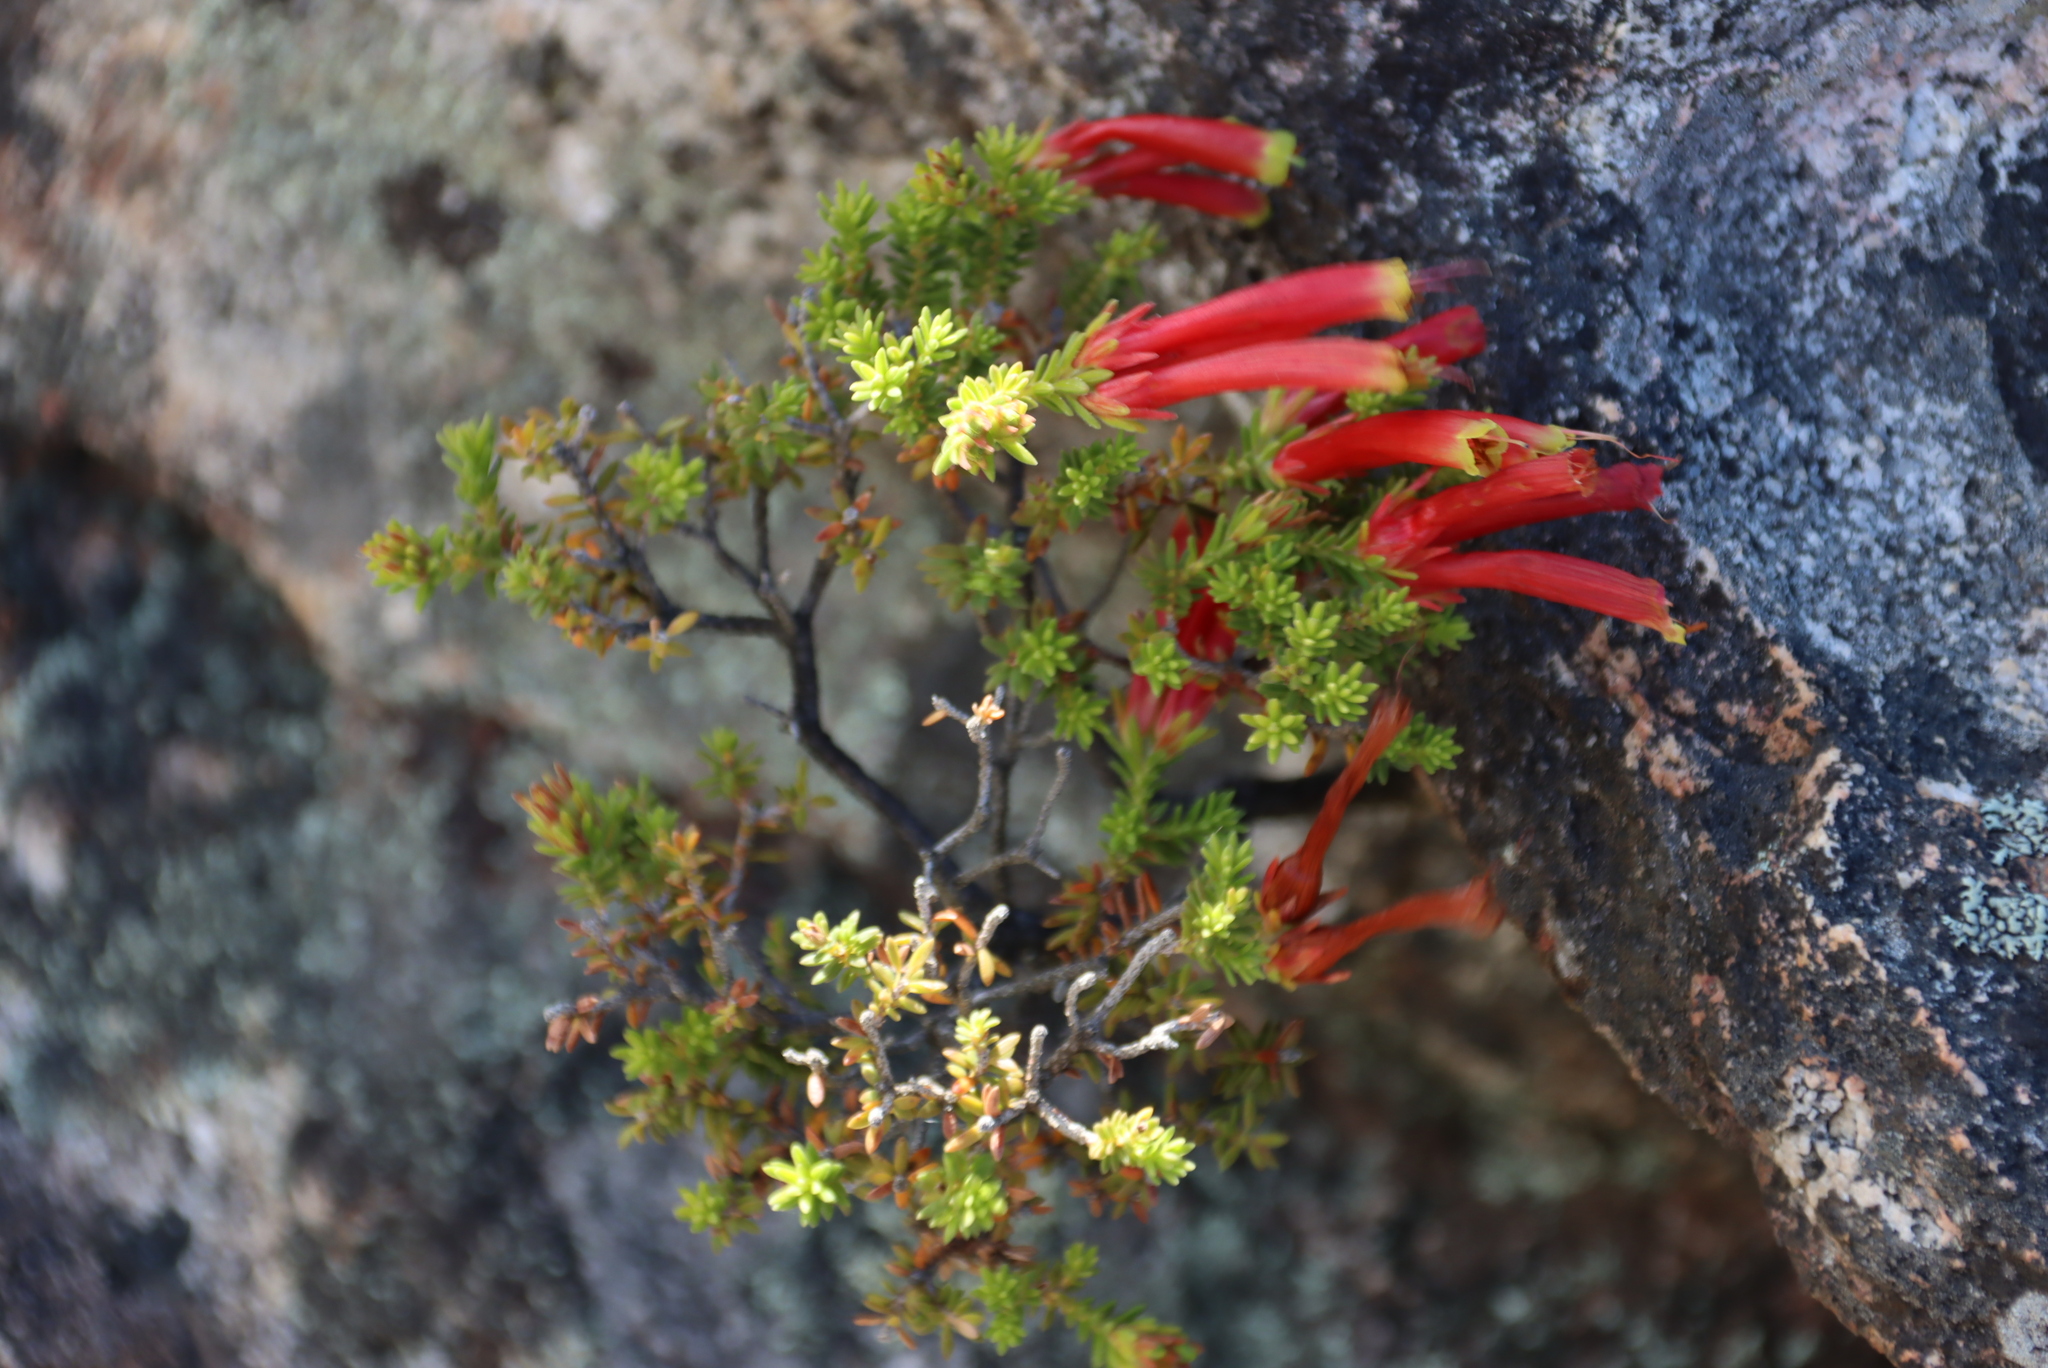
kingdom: Plantae
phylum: Tracheophyta
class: Magnoliopsida
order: Ericales
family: Ericaceae
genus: Erica
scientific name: Erica discolor
